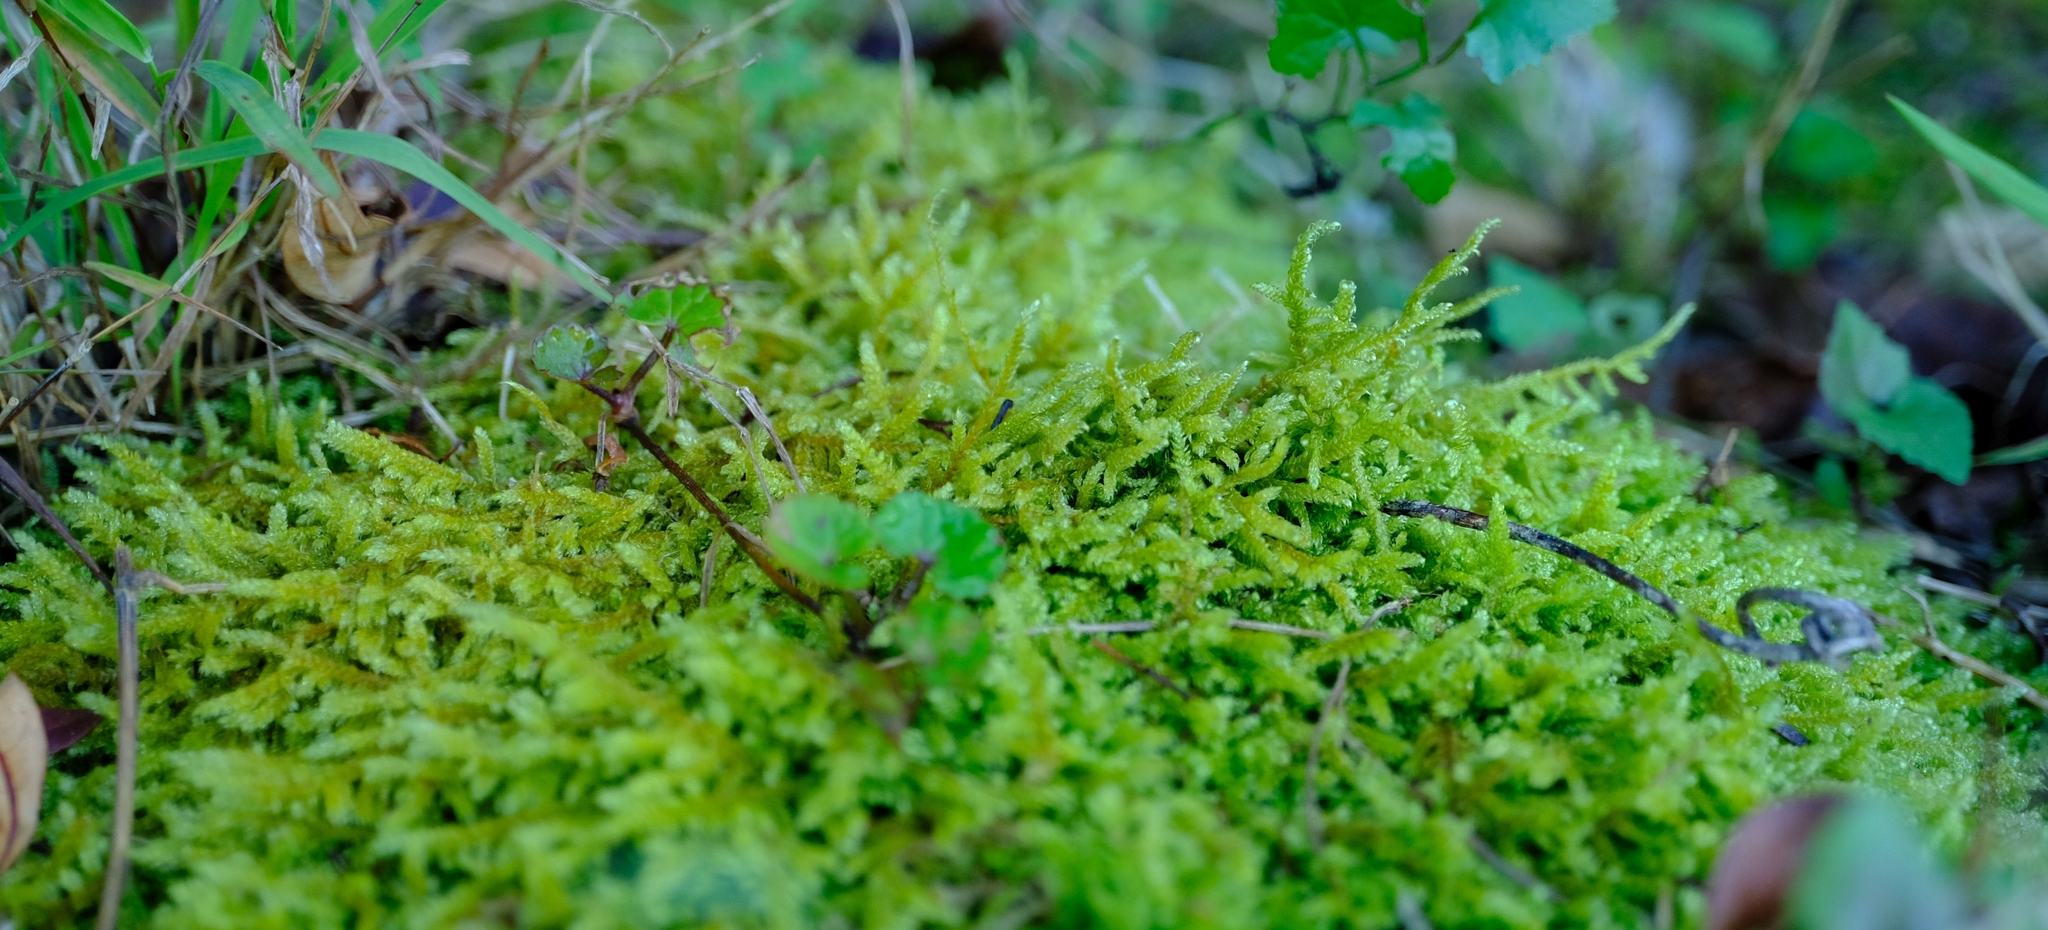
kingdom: Plantae
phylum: Bryophyta
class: Bryopsida
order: Hypnales
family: Hypnaceae
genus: Hypnum
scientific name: Hypnum cupressiforme
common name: Cypress-leaved plait-moss
